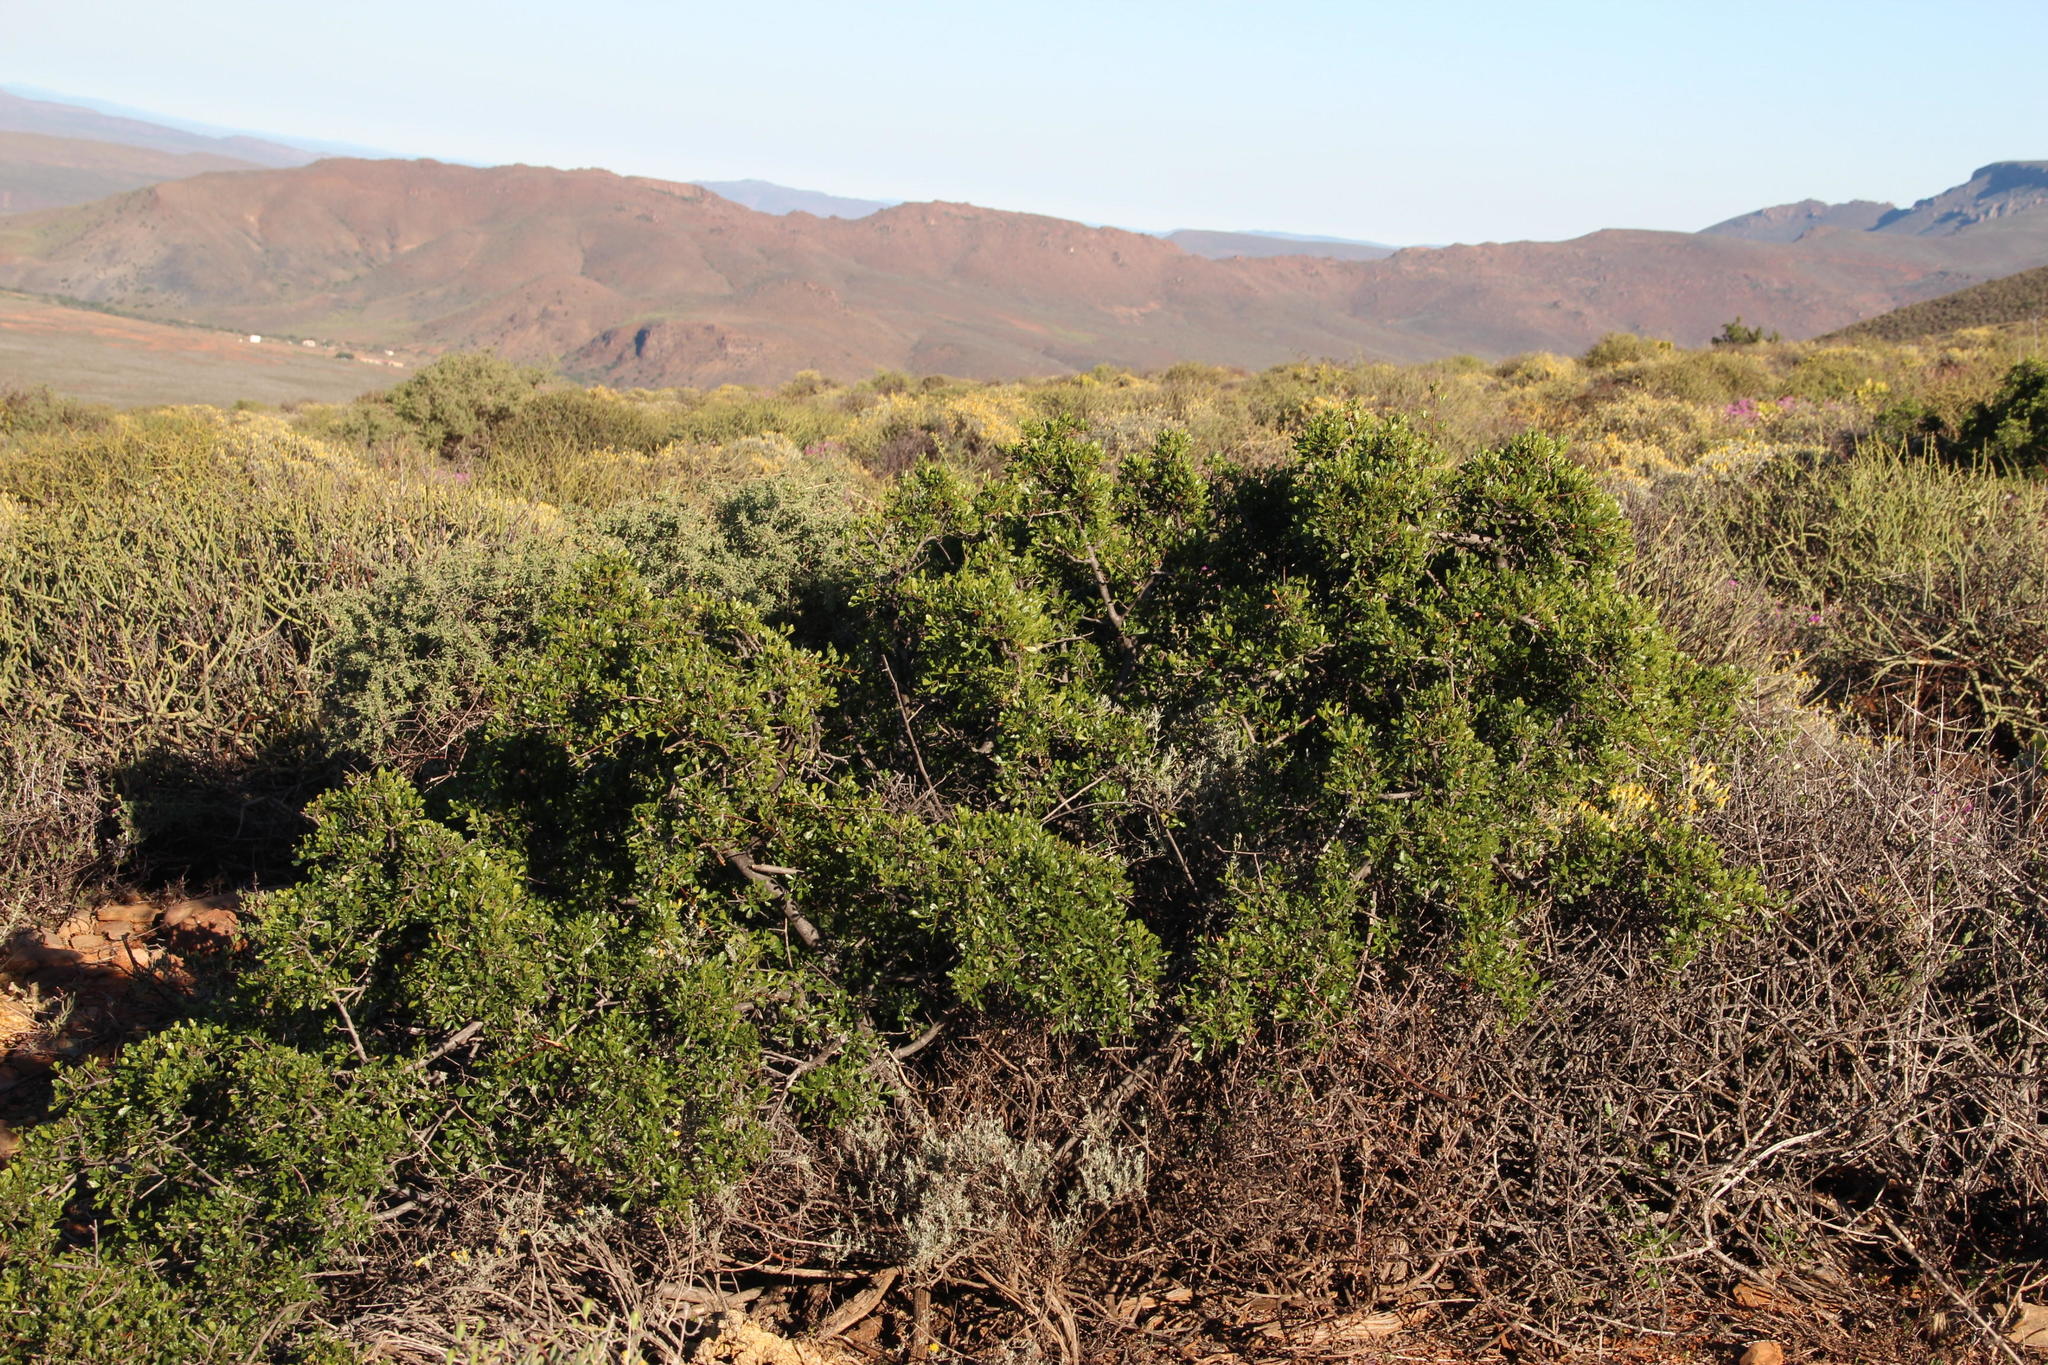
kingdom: Plantae
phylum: Tracheophyta
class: Magnoliopsida
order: Sapindales
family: Anacardiaceae
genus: Searsia
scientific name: Searsia burchellii
